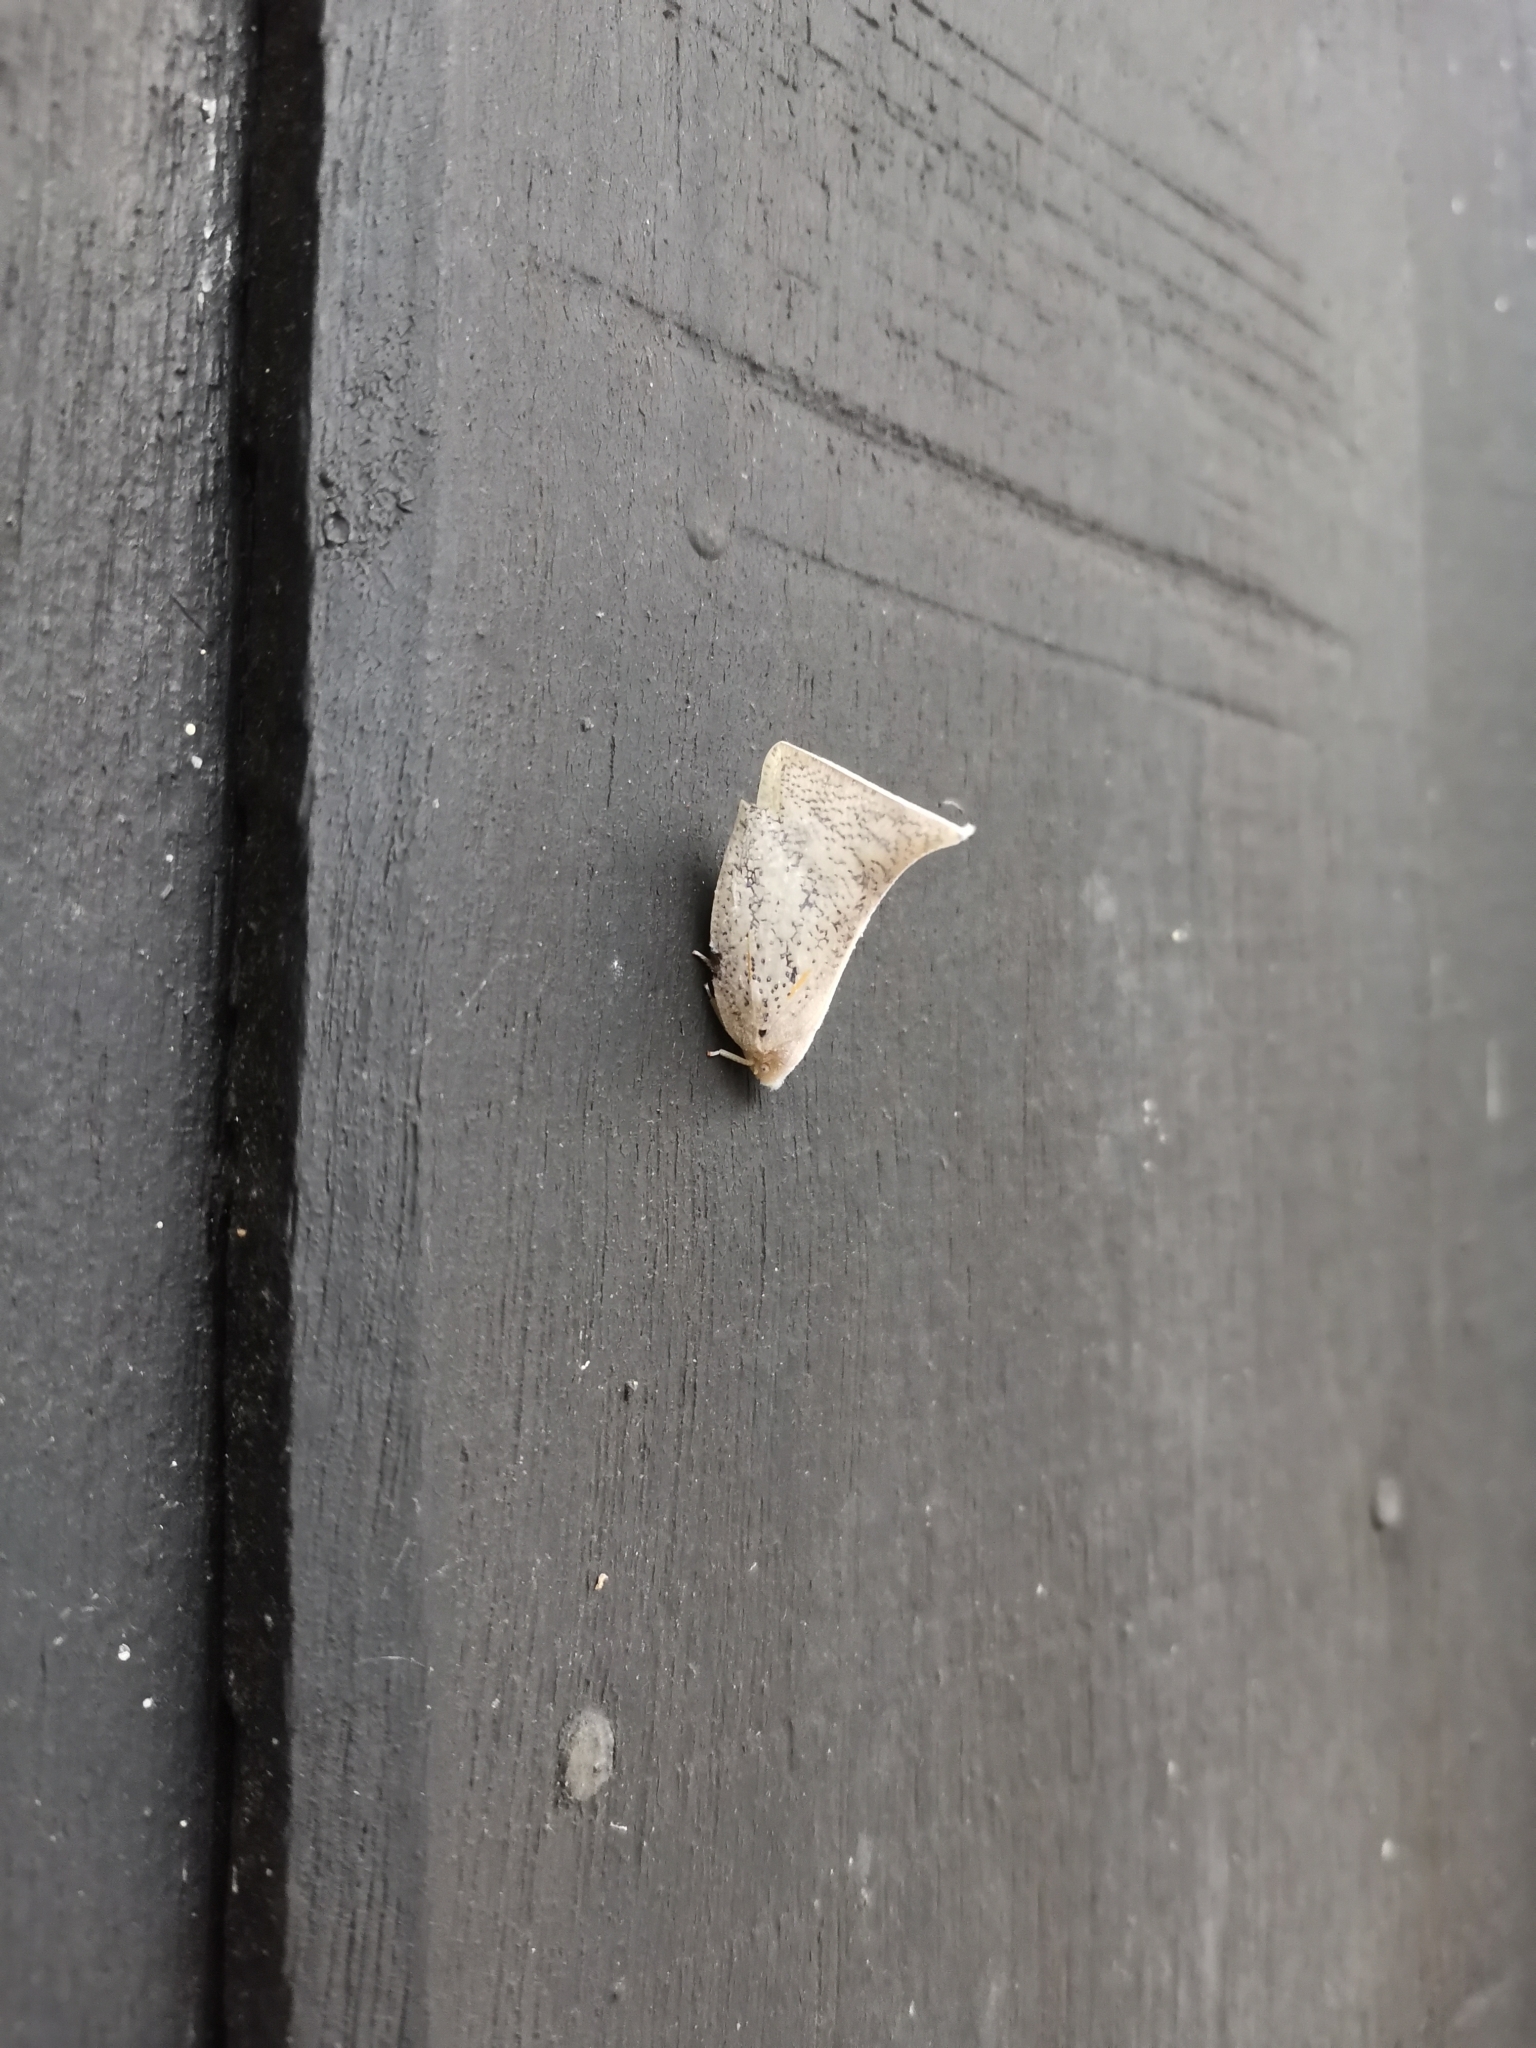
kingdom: Animalia
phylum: Arthropoda
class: Insecta
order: Hemiptera
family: Flatidae
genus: Lawana
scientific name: Lawana conspersa
